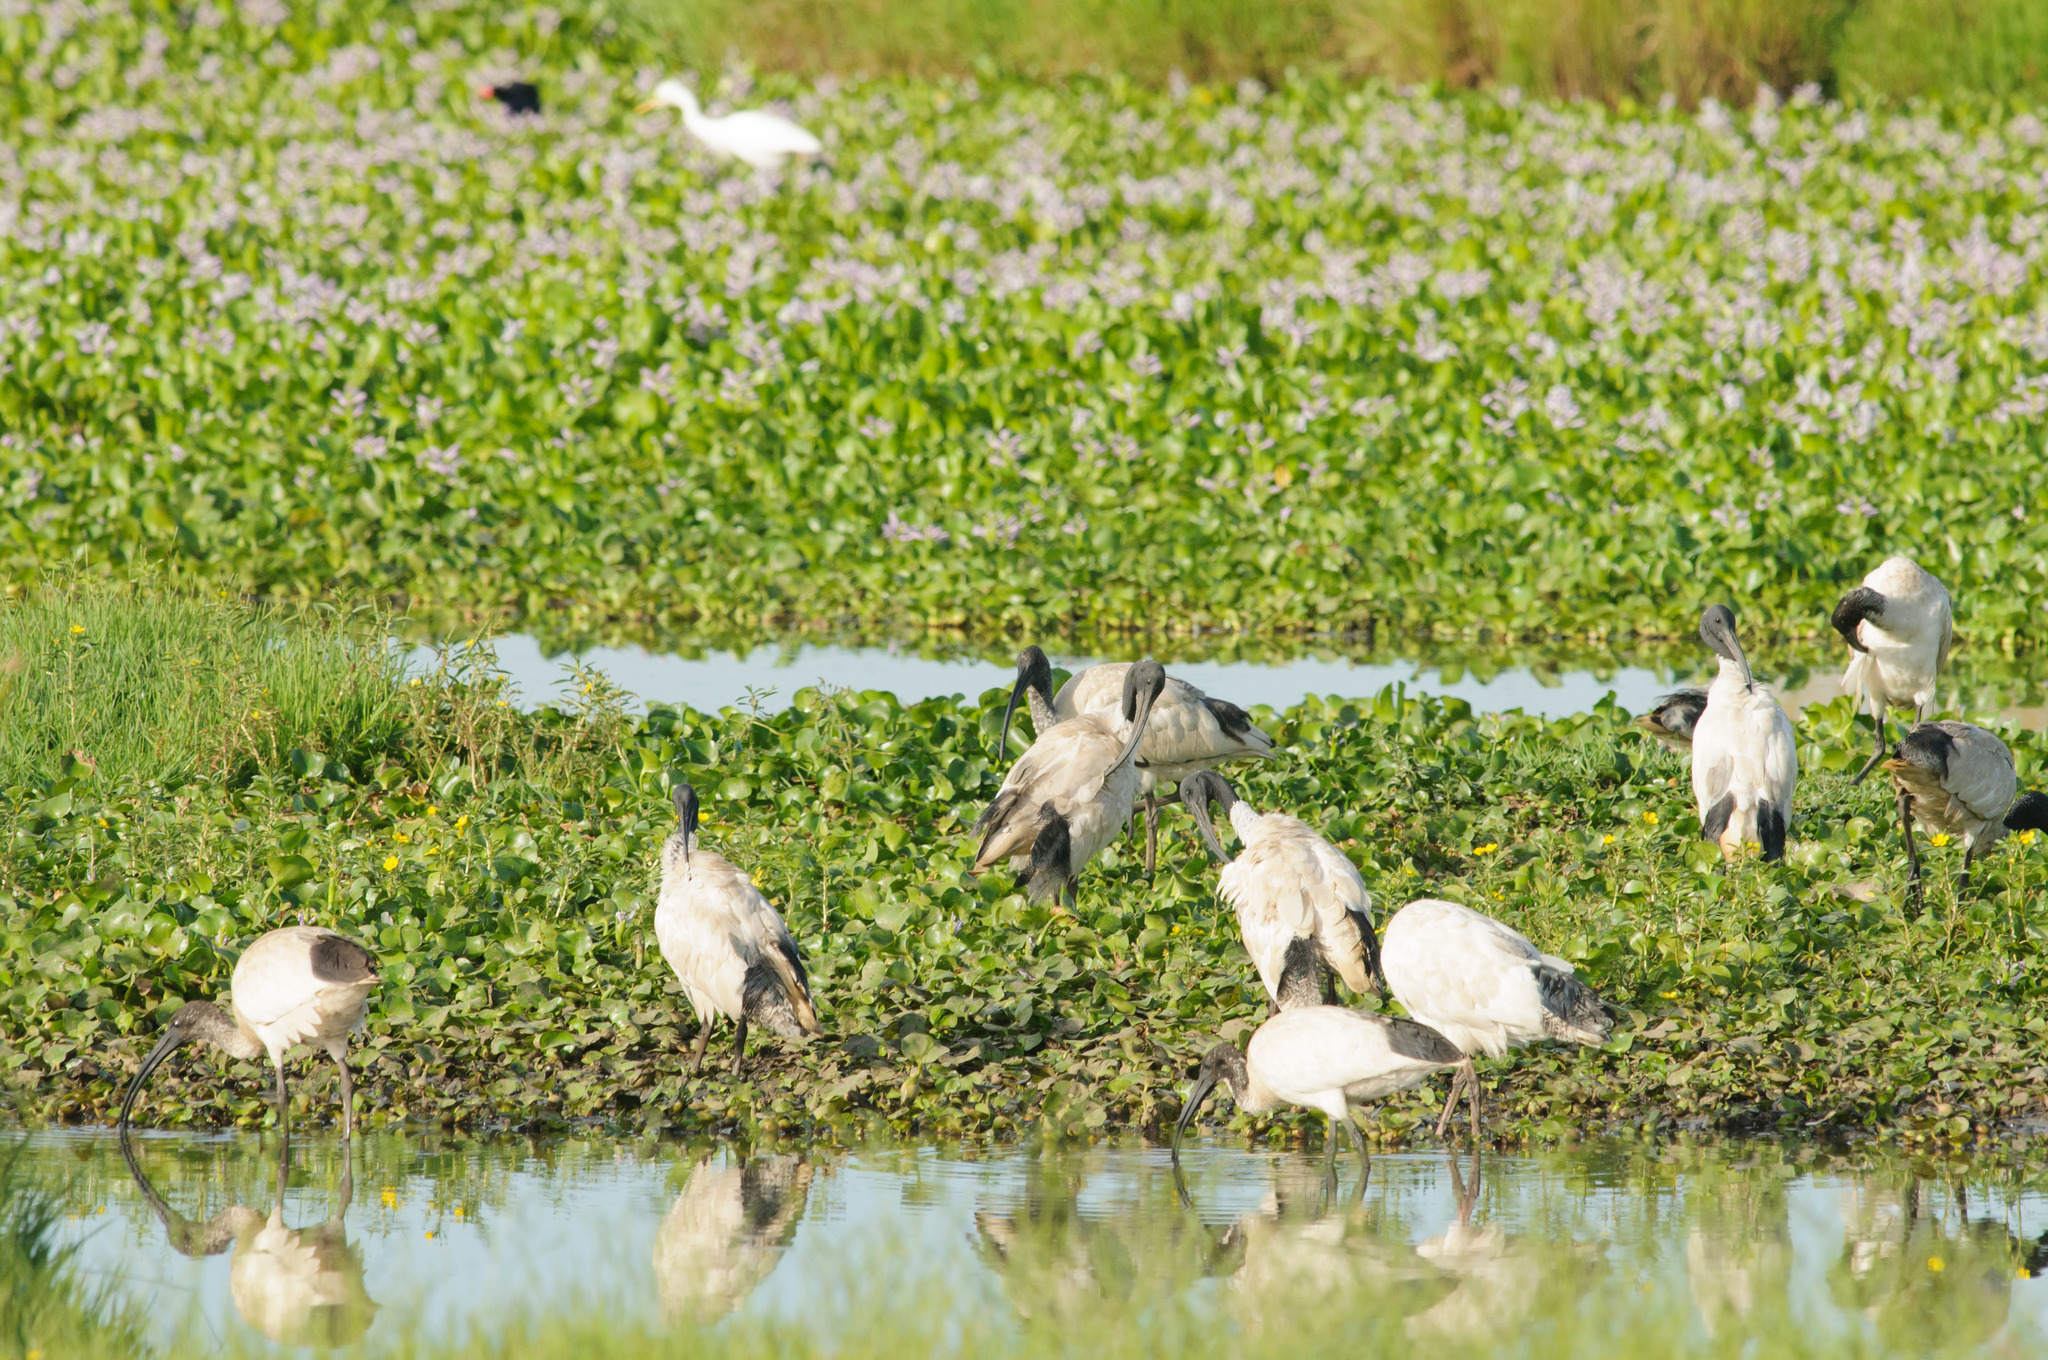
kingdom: Animalia
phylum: Chordata
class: Aves
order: Pelecaniformes
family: Threskiornithidae
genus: Threskiornis
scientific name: Threskiornis molucca
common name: Australian white ibis
